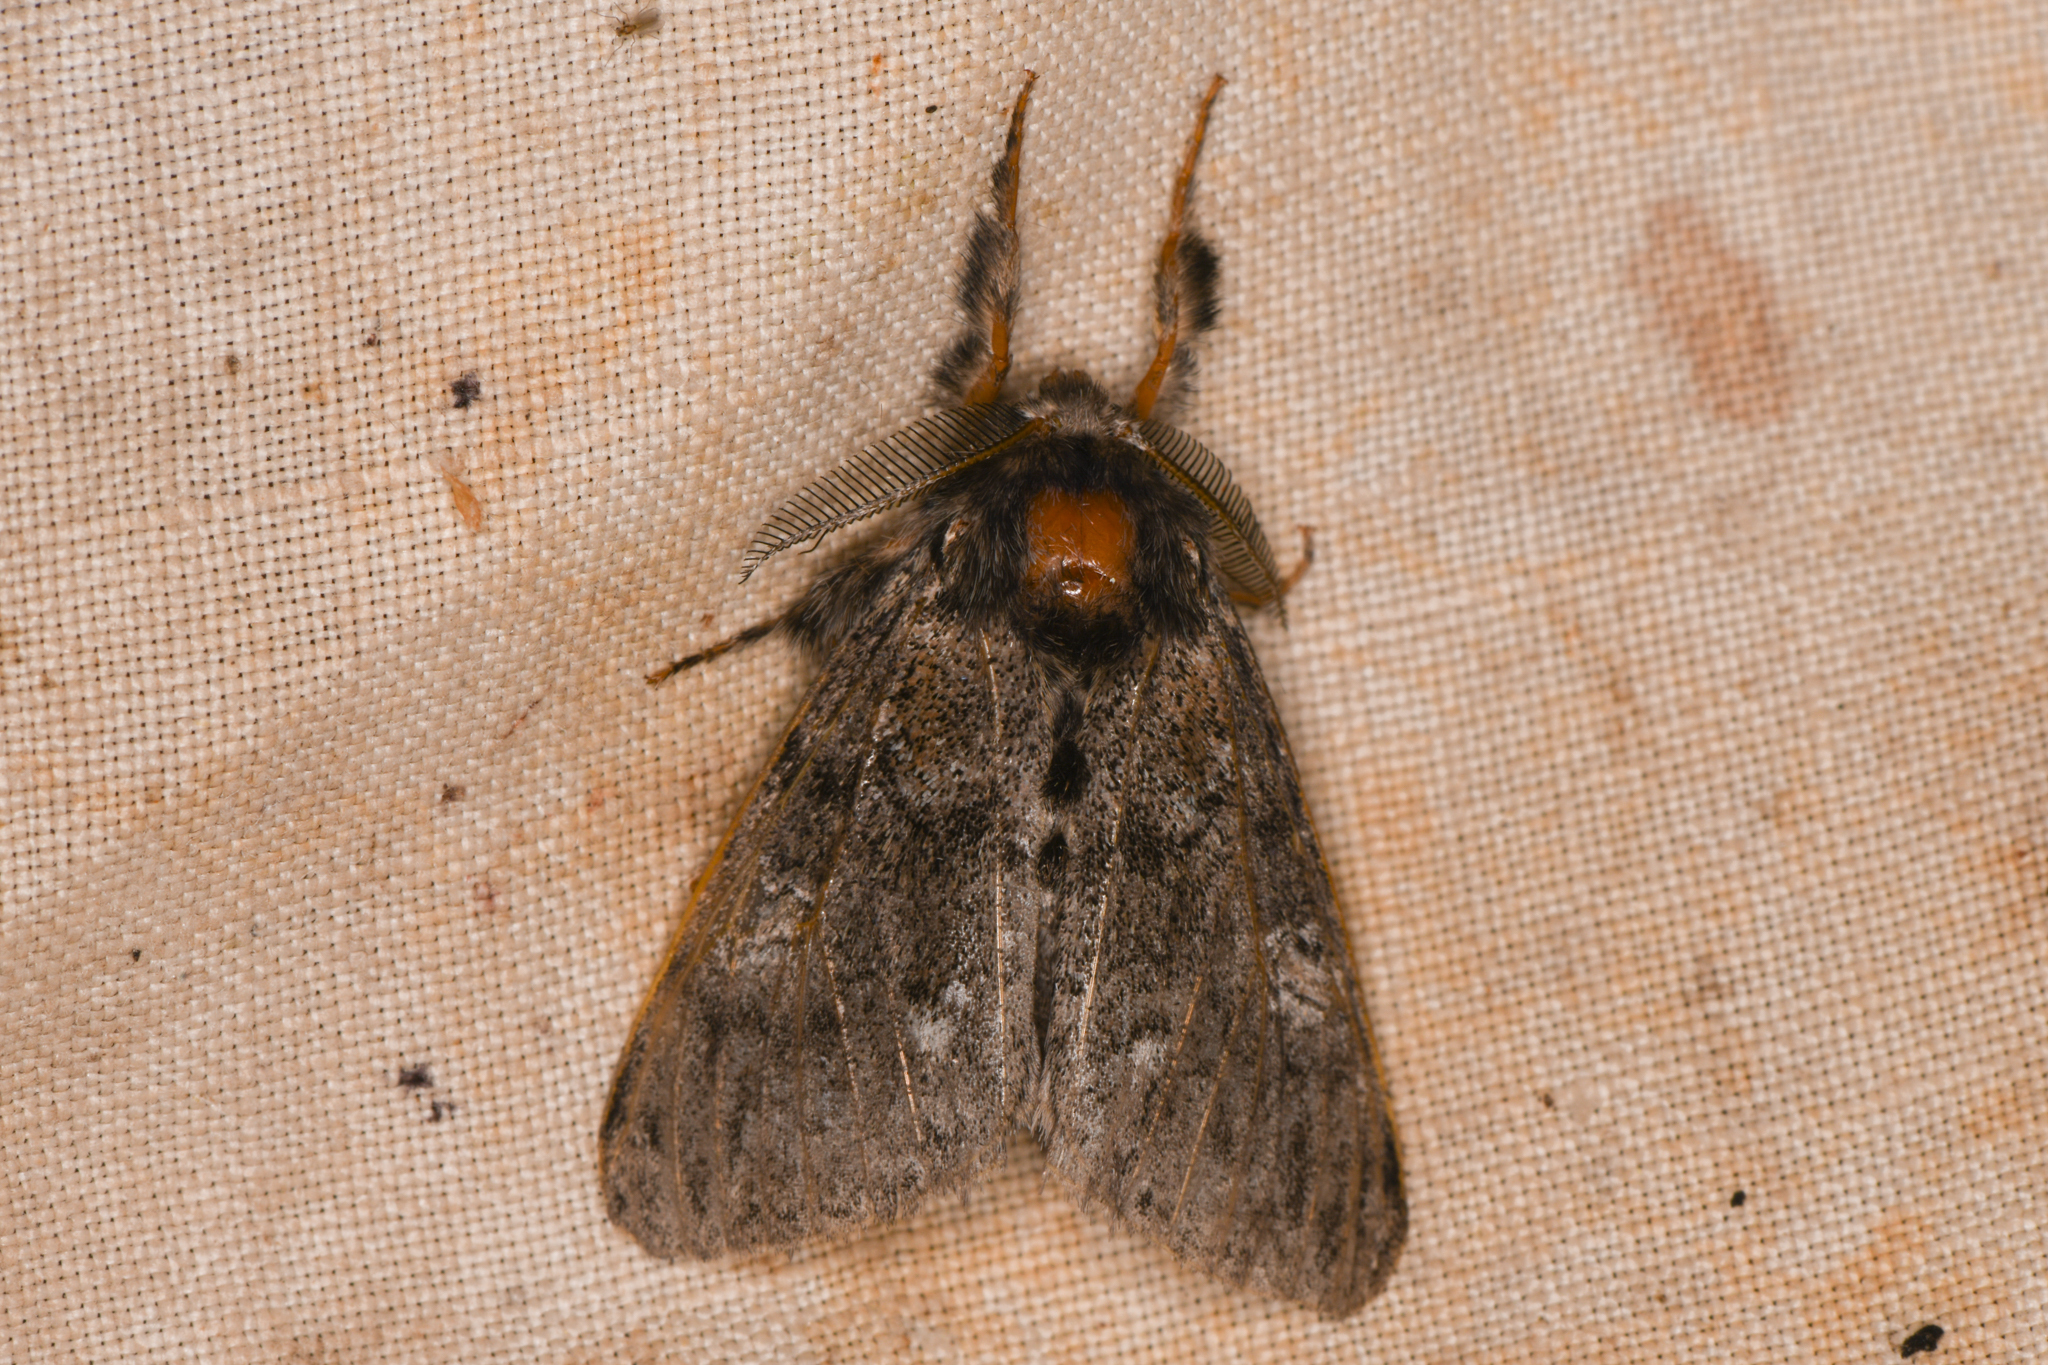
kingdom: Animalia
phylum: Arthropoda
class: Insecta
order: Lepidoptera
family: Erebidae
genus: Dasychira
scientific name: Dasychira vagans
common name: Variable tussock moth
